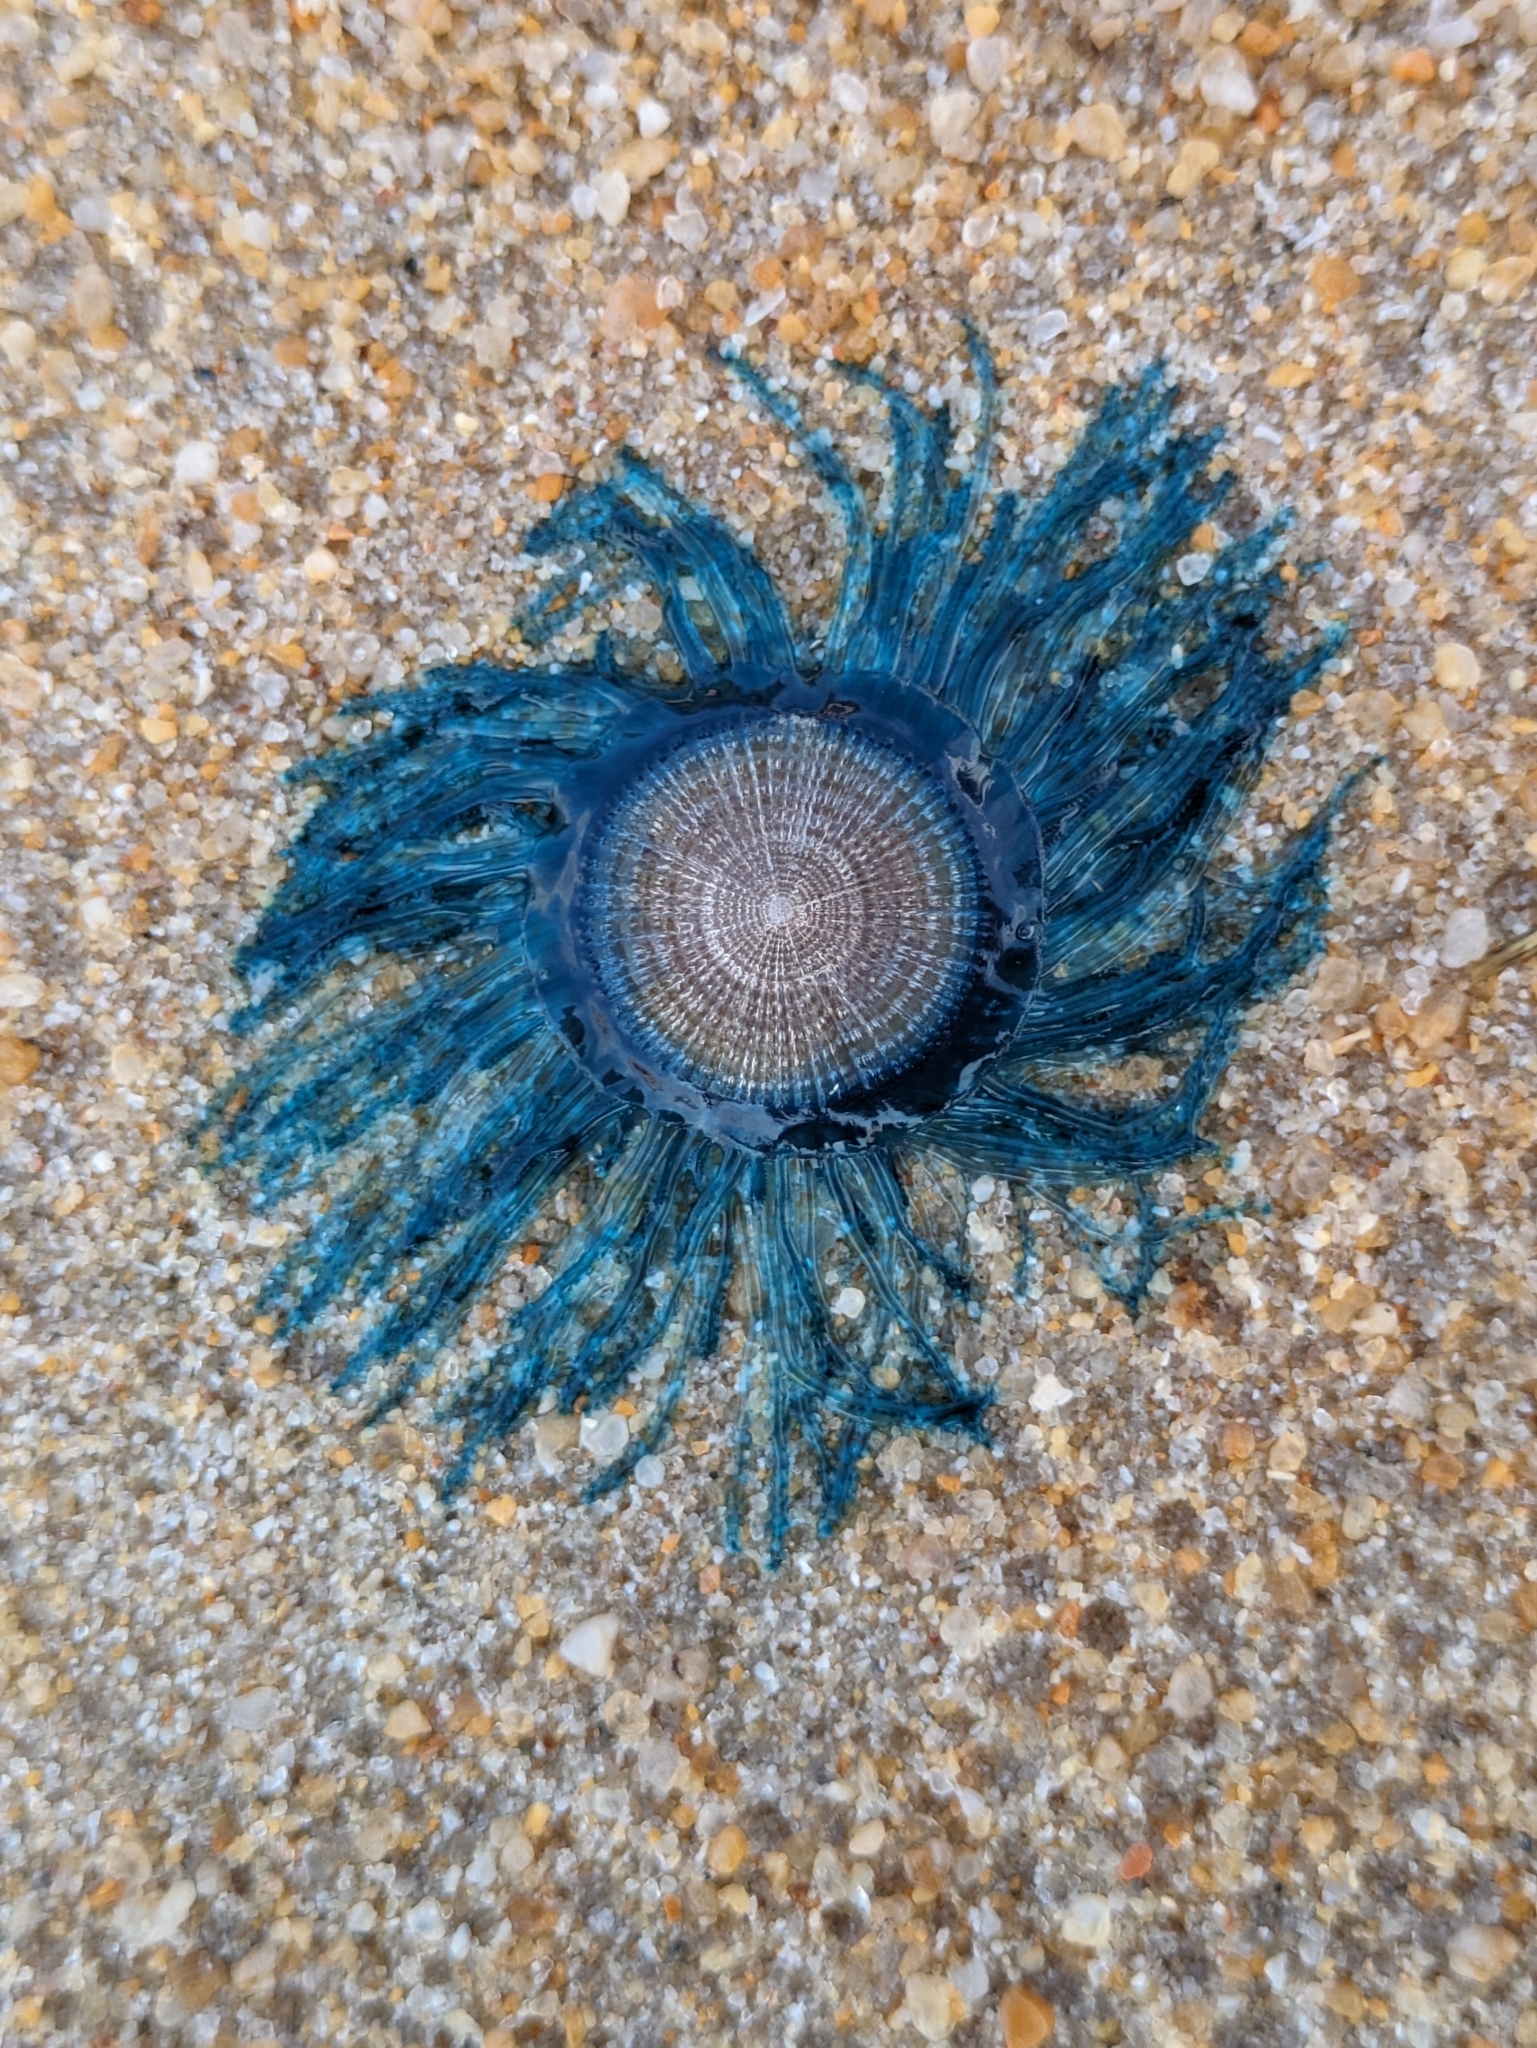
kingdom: Animalia
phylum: Cnidaria
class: Hydrozoa
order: Anthoathecata
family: Porpitidae
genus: Porpita
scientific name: Porpita porpita
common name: Blue button
